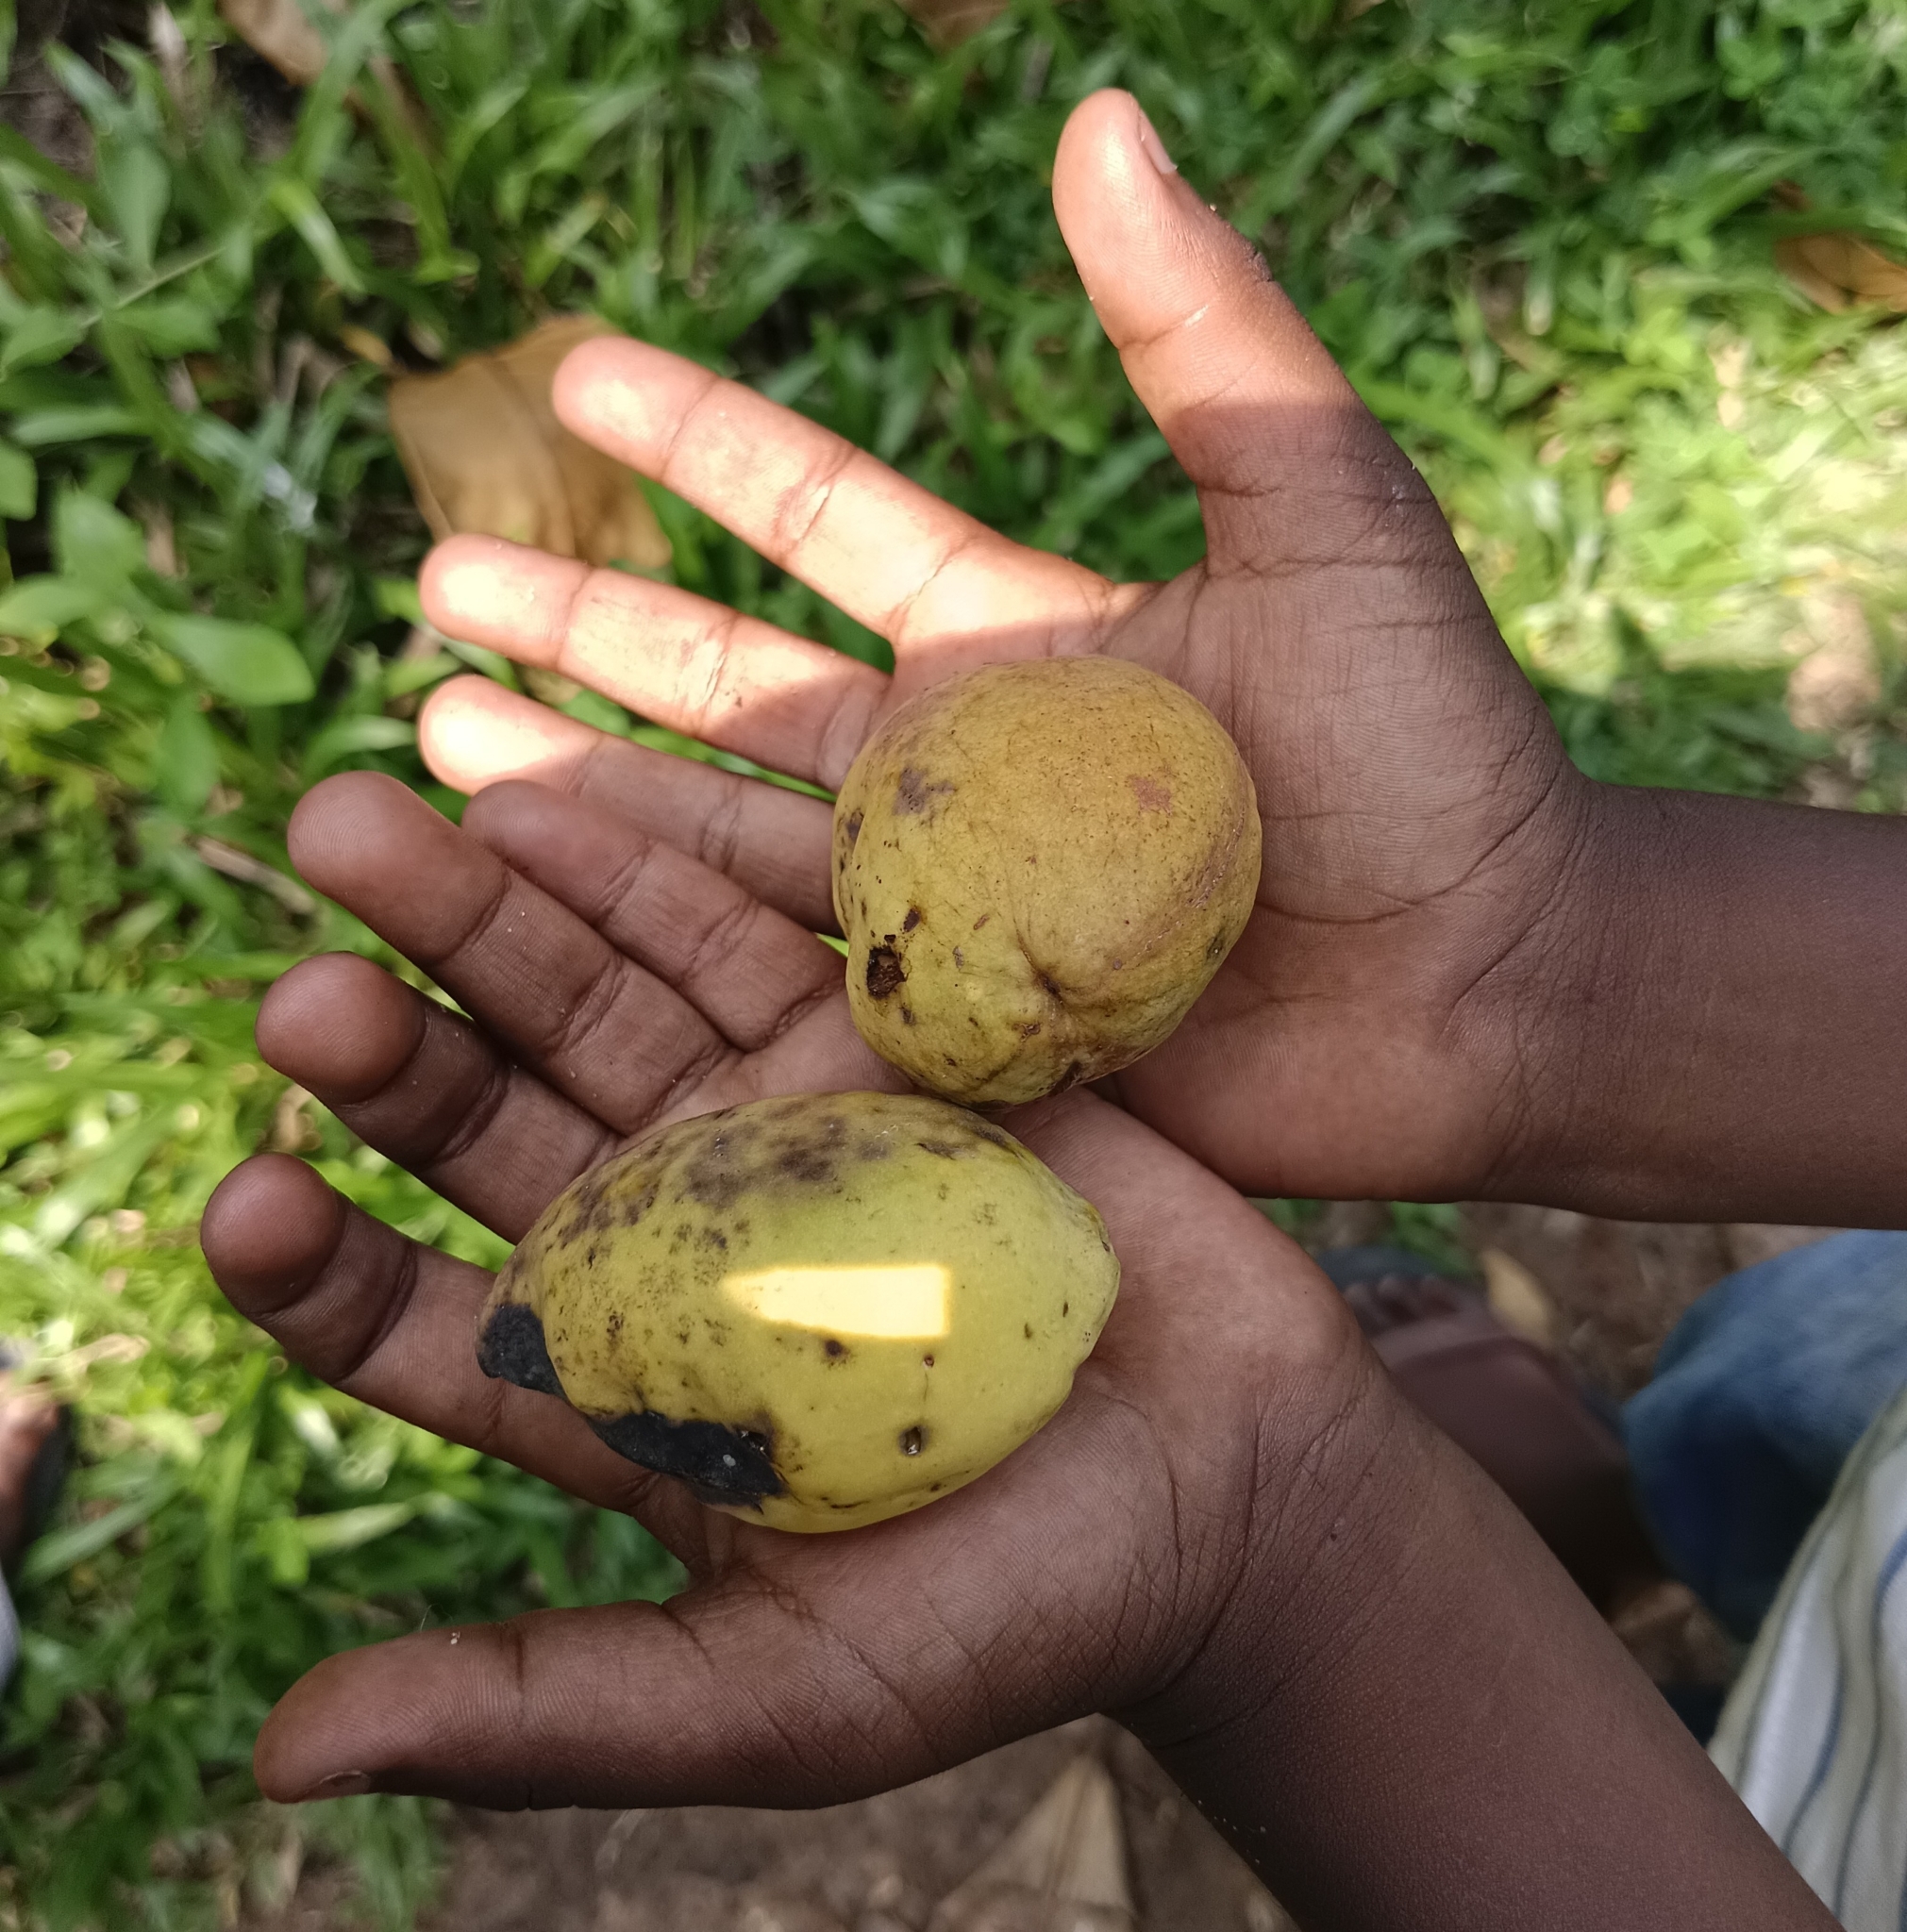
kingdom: Plantae
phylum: Tracheophyta
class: Magnoliopsida
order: Myrtales
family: Combretaceae
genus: Terminalia
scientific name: Terminalia catappa
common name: Tropical almond
